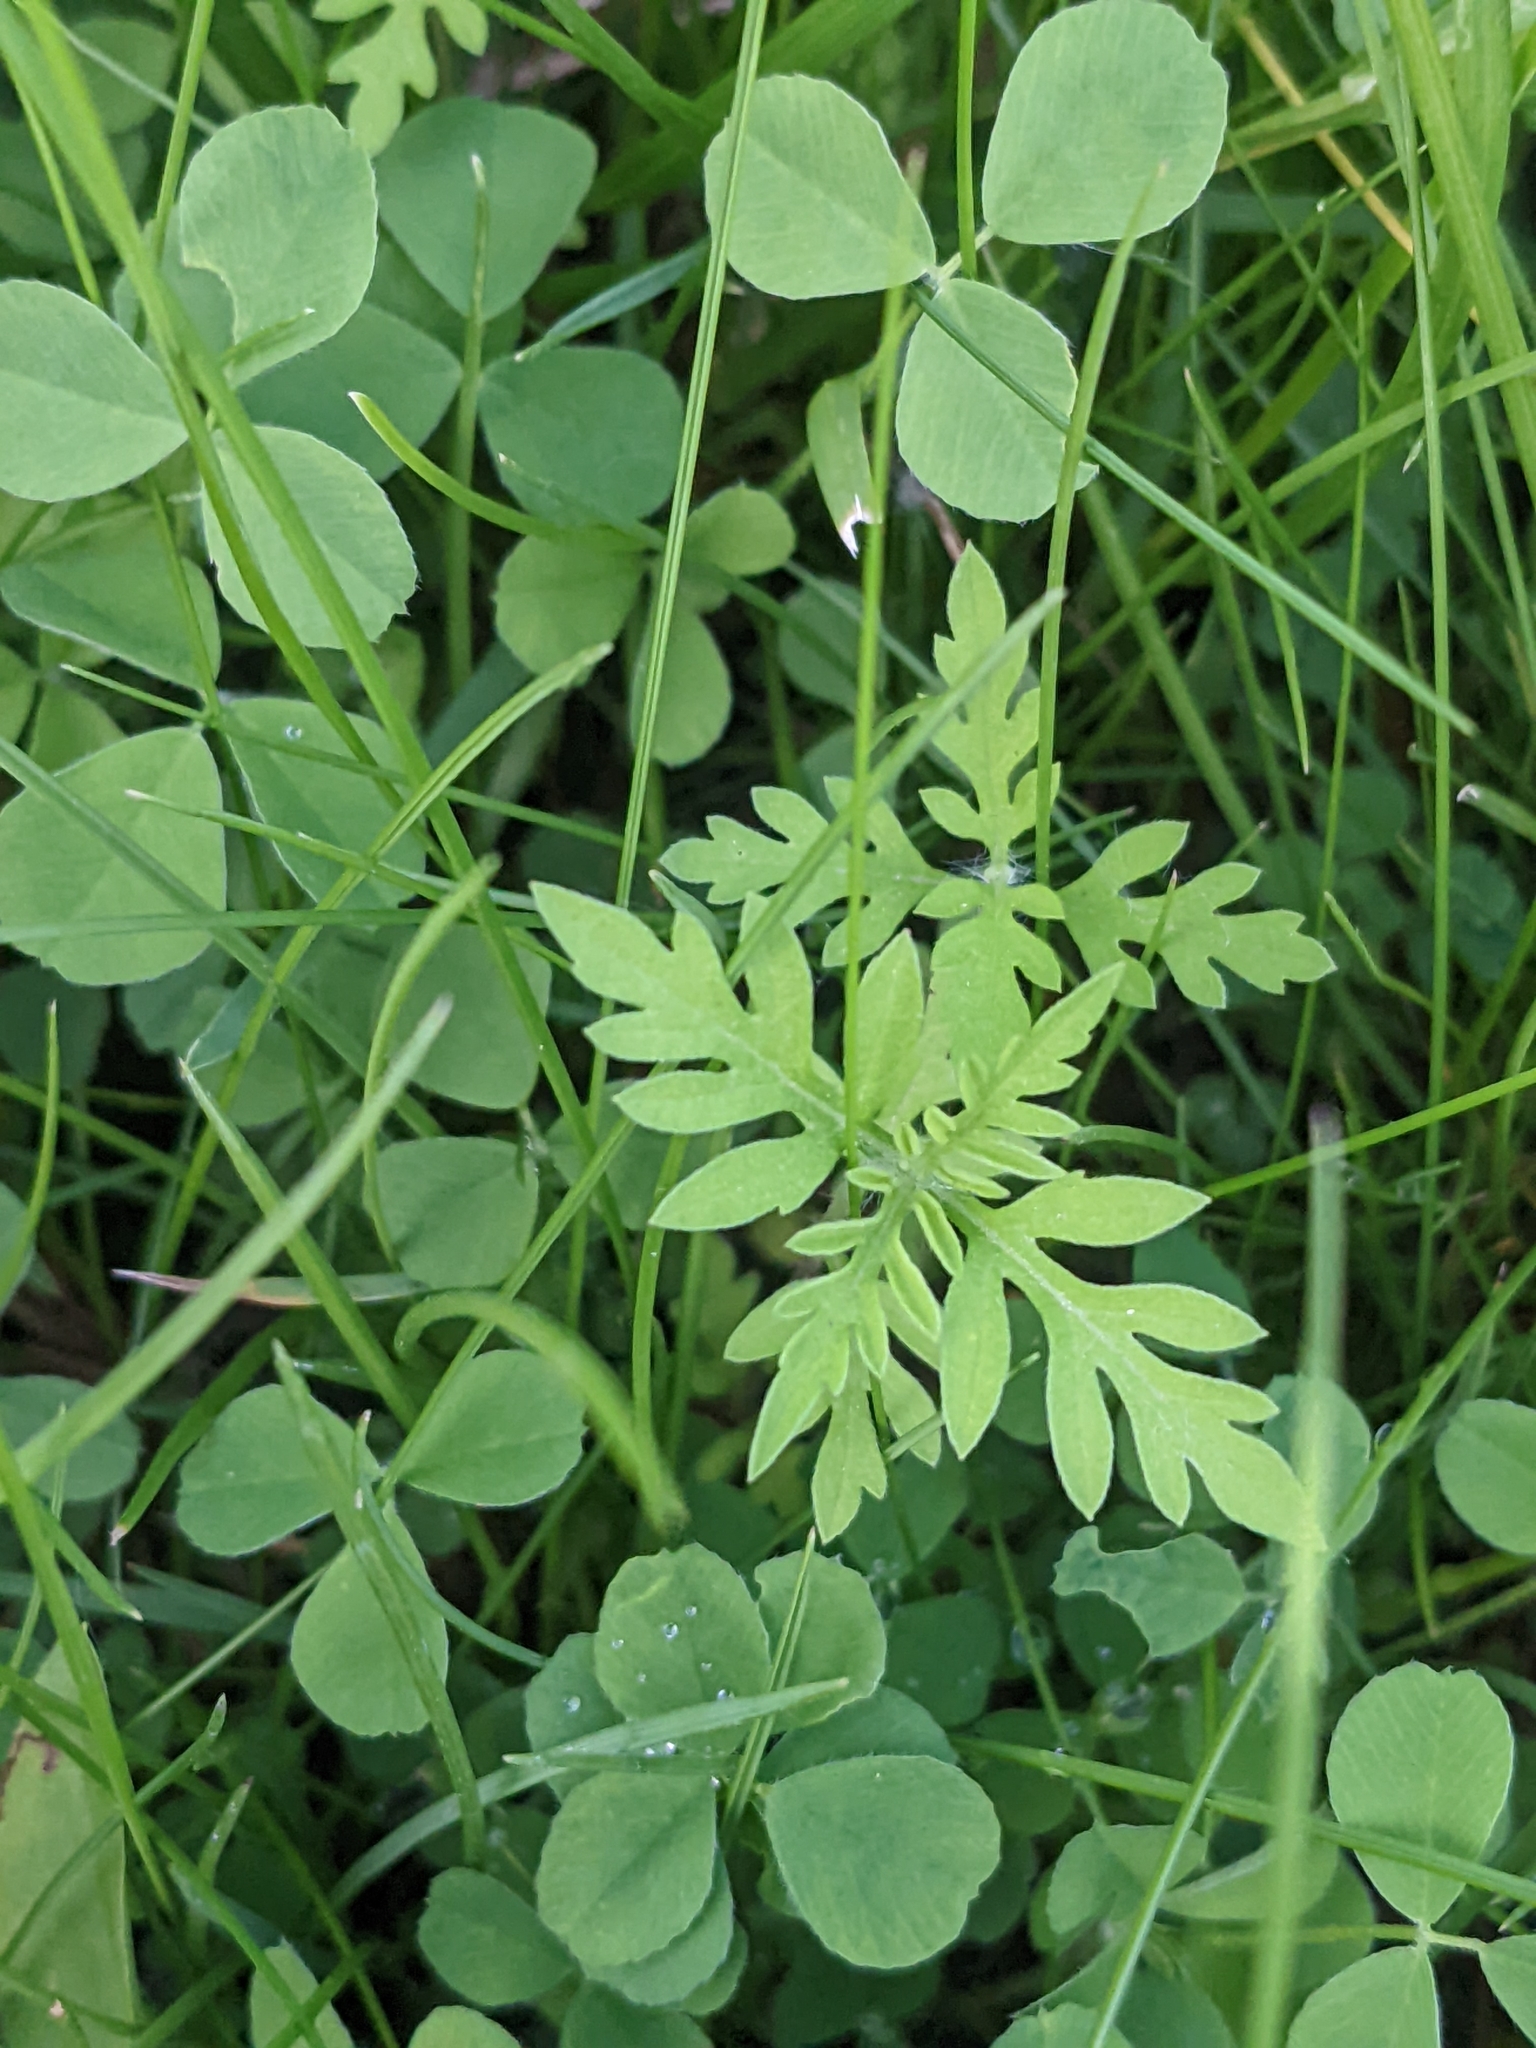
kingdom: Plantae
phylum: Tracheophyta
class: Magnoliopsida
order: Asterales
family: Asteraceae
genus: Ambrosia
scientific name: Ambrosia artemisiifolia
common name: Annual ragweed
